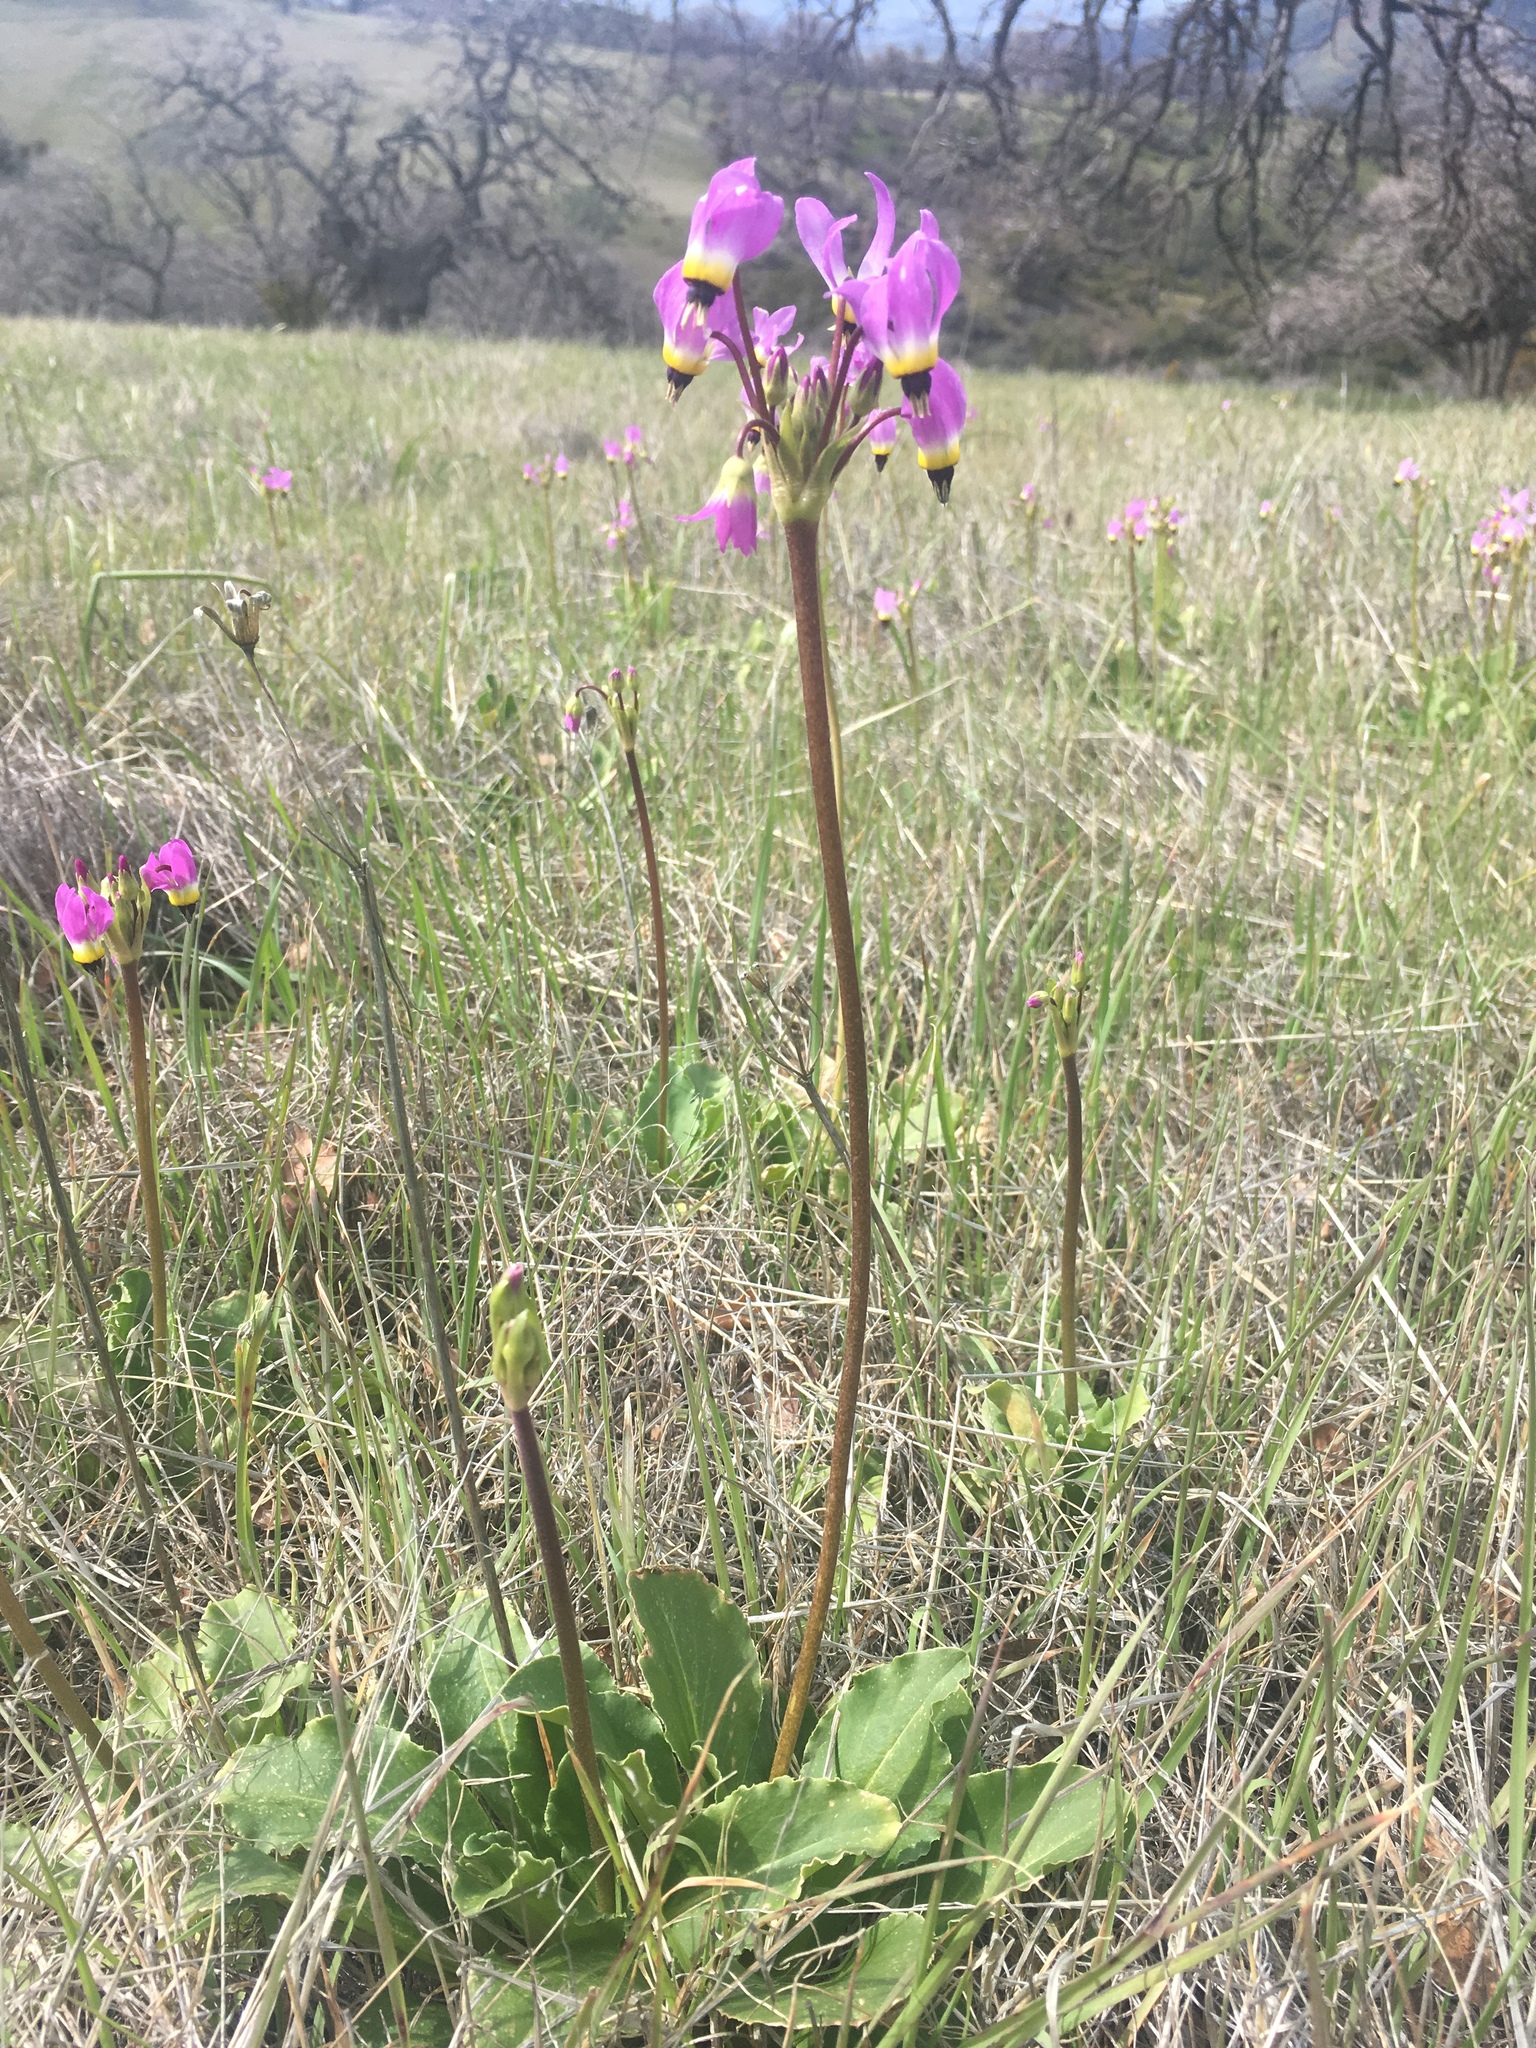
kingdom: Plantae
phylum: Tracheophyta
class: Magnoliopsida
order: Ericales
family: Primulaceae
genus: Dodecatheon
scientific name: Dodecatheon clevelandii
